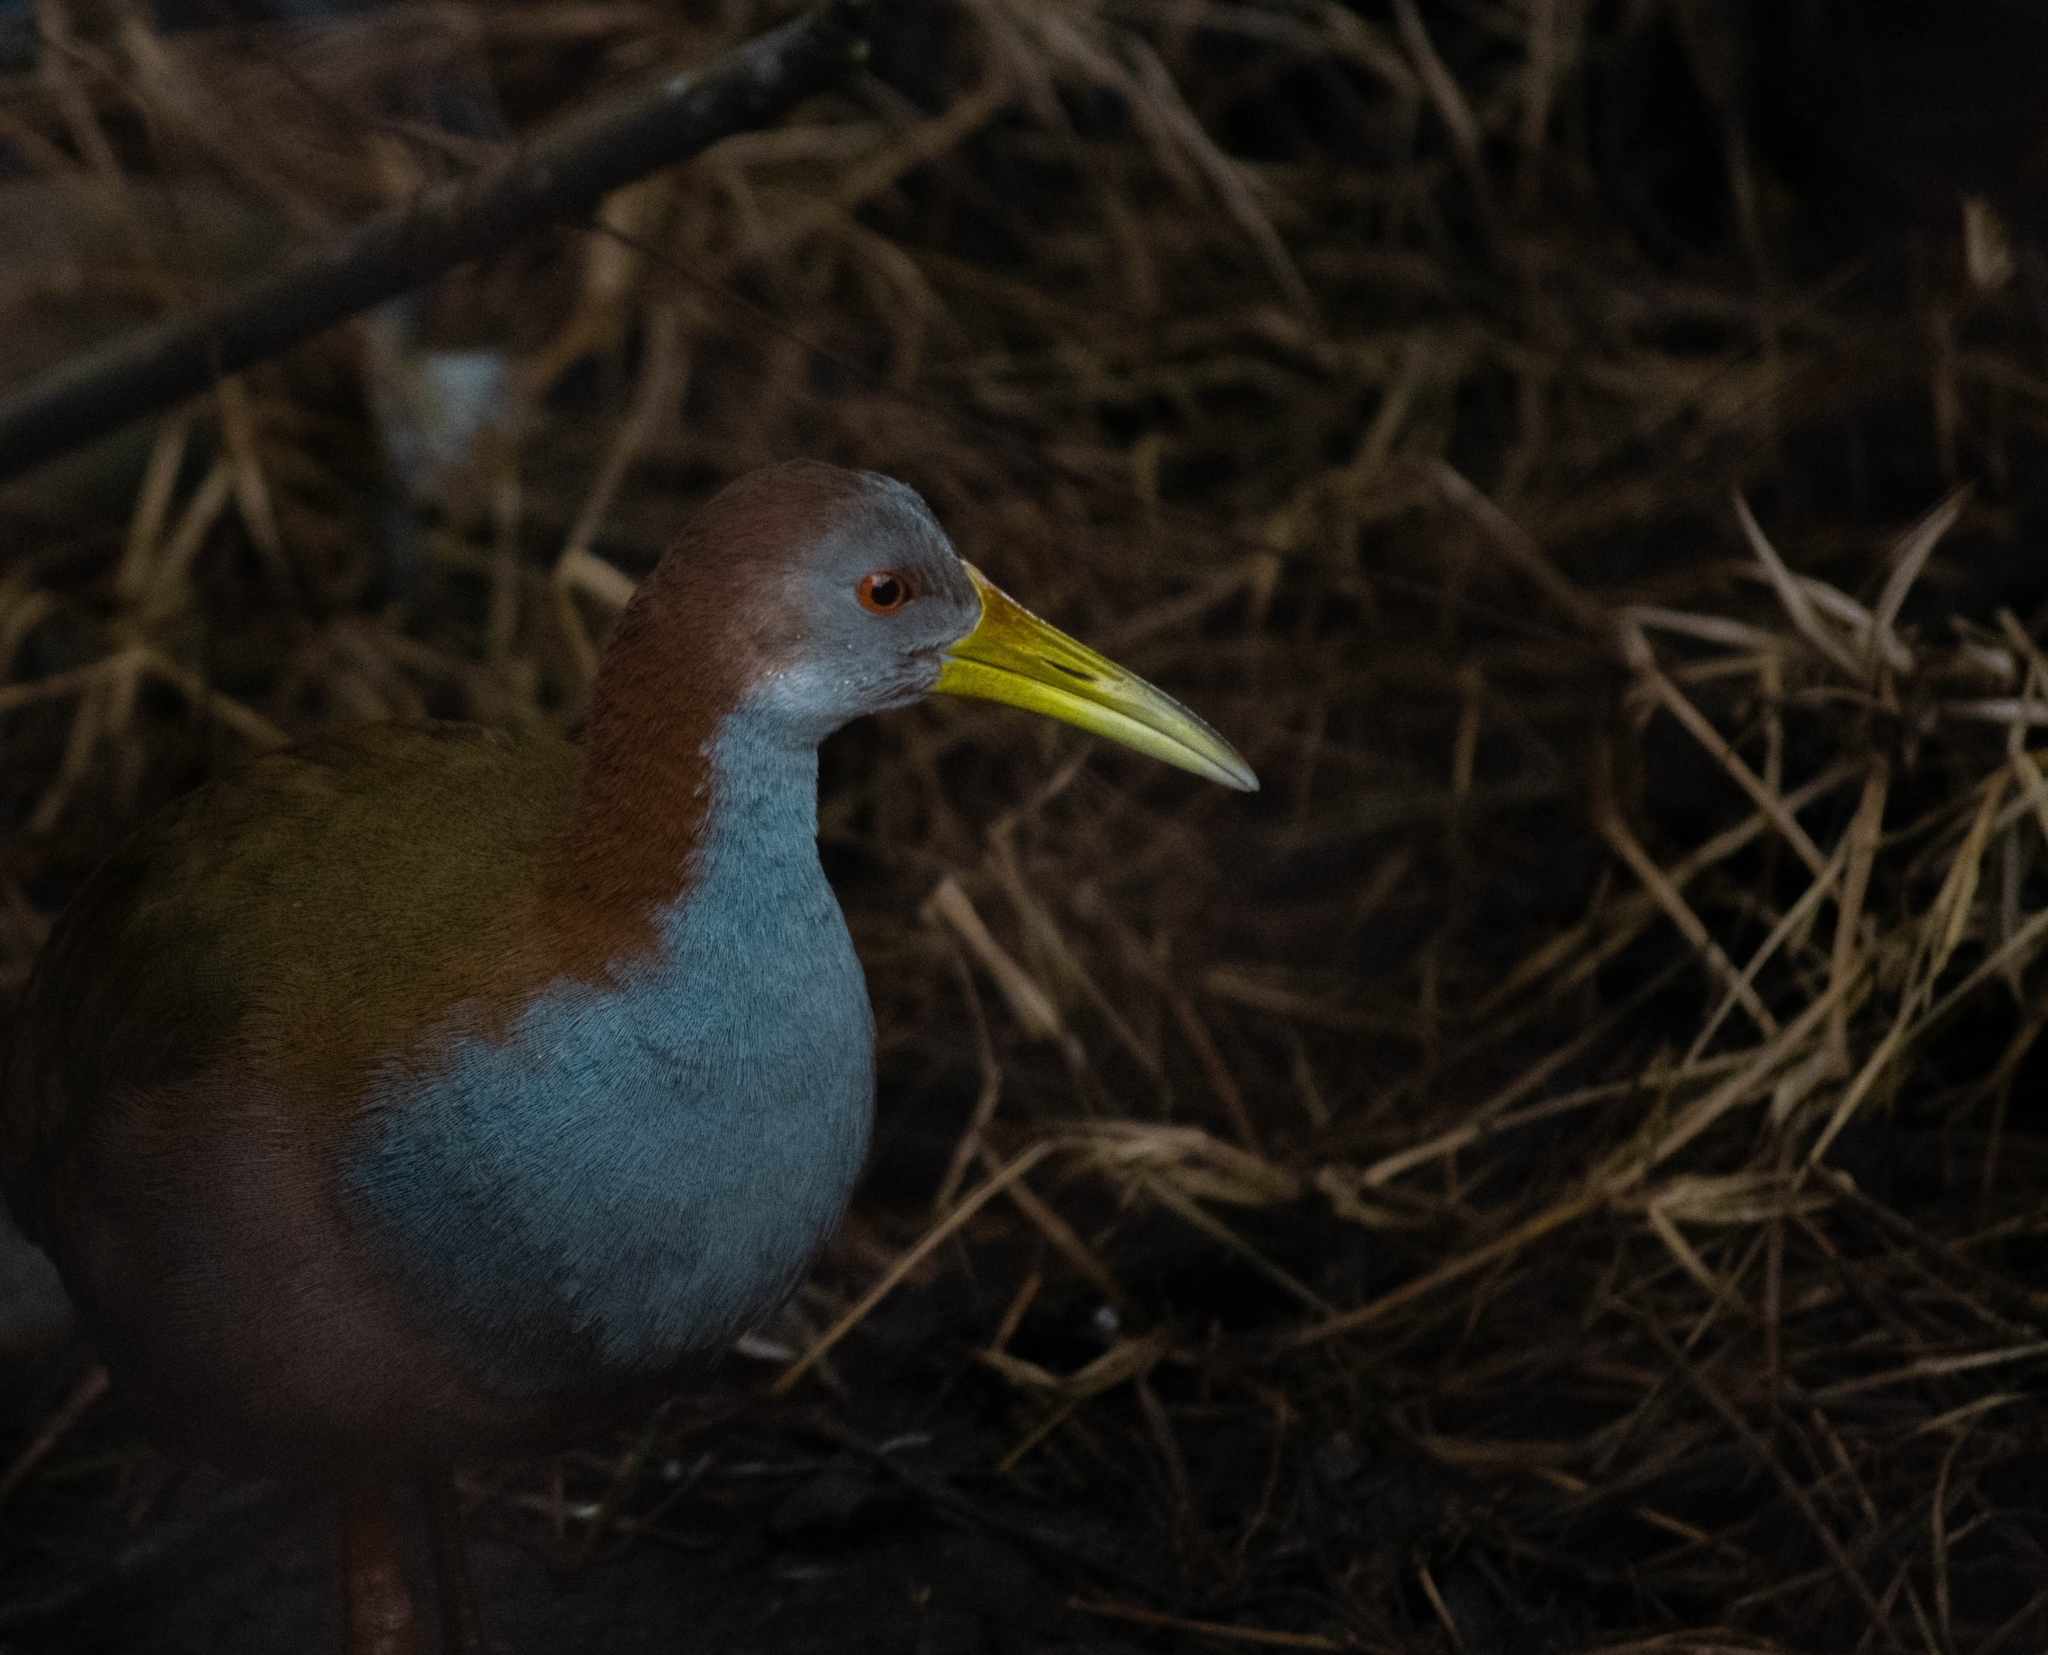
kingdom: Animalia
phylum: Chordata
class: Aves
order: Gruiformes
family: Rallidae
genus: Aramides
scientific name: Aramides ypecaha
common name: Giant wood rail
